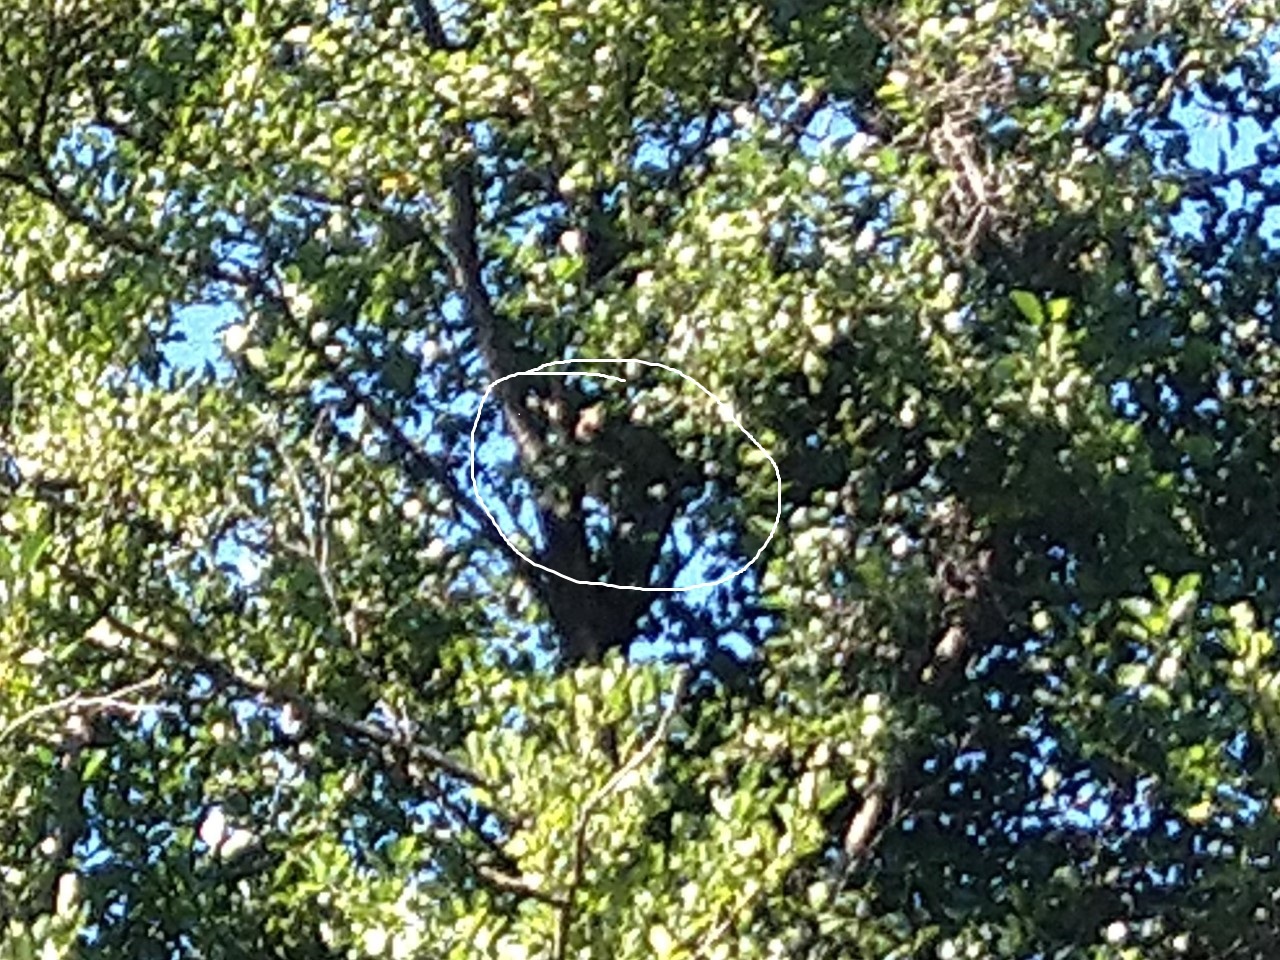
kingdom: Animalia
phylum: Arthropoda
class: Insecta
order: Hymenoptera
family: Vespidae
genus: Vespa
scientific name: Vespa velutina
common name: Asian hornet
